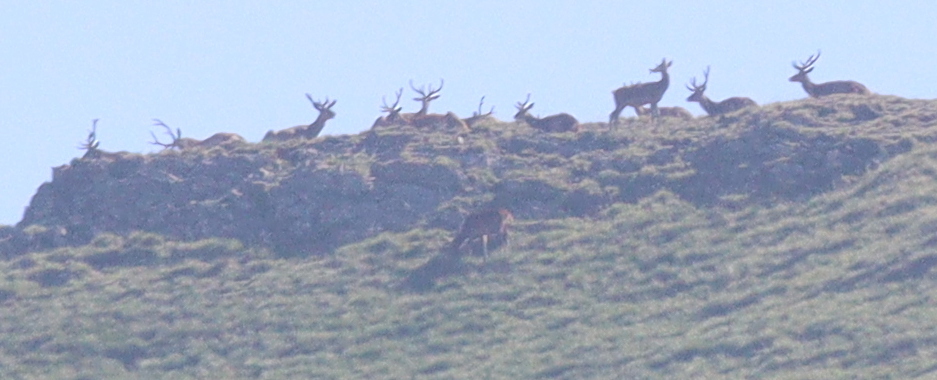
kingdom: Animalia
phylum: Chordata
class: Mammalia
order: Artiodactyla
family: Cervidae
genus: Cervus
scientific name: Cervus elaphus
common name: Red deer
